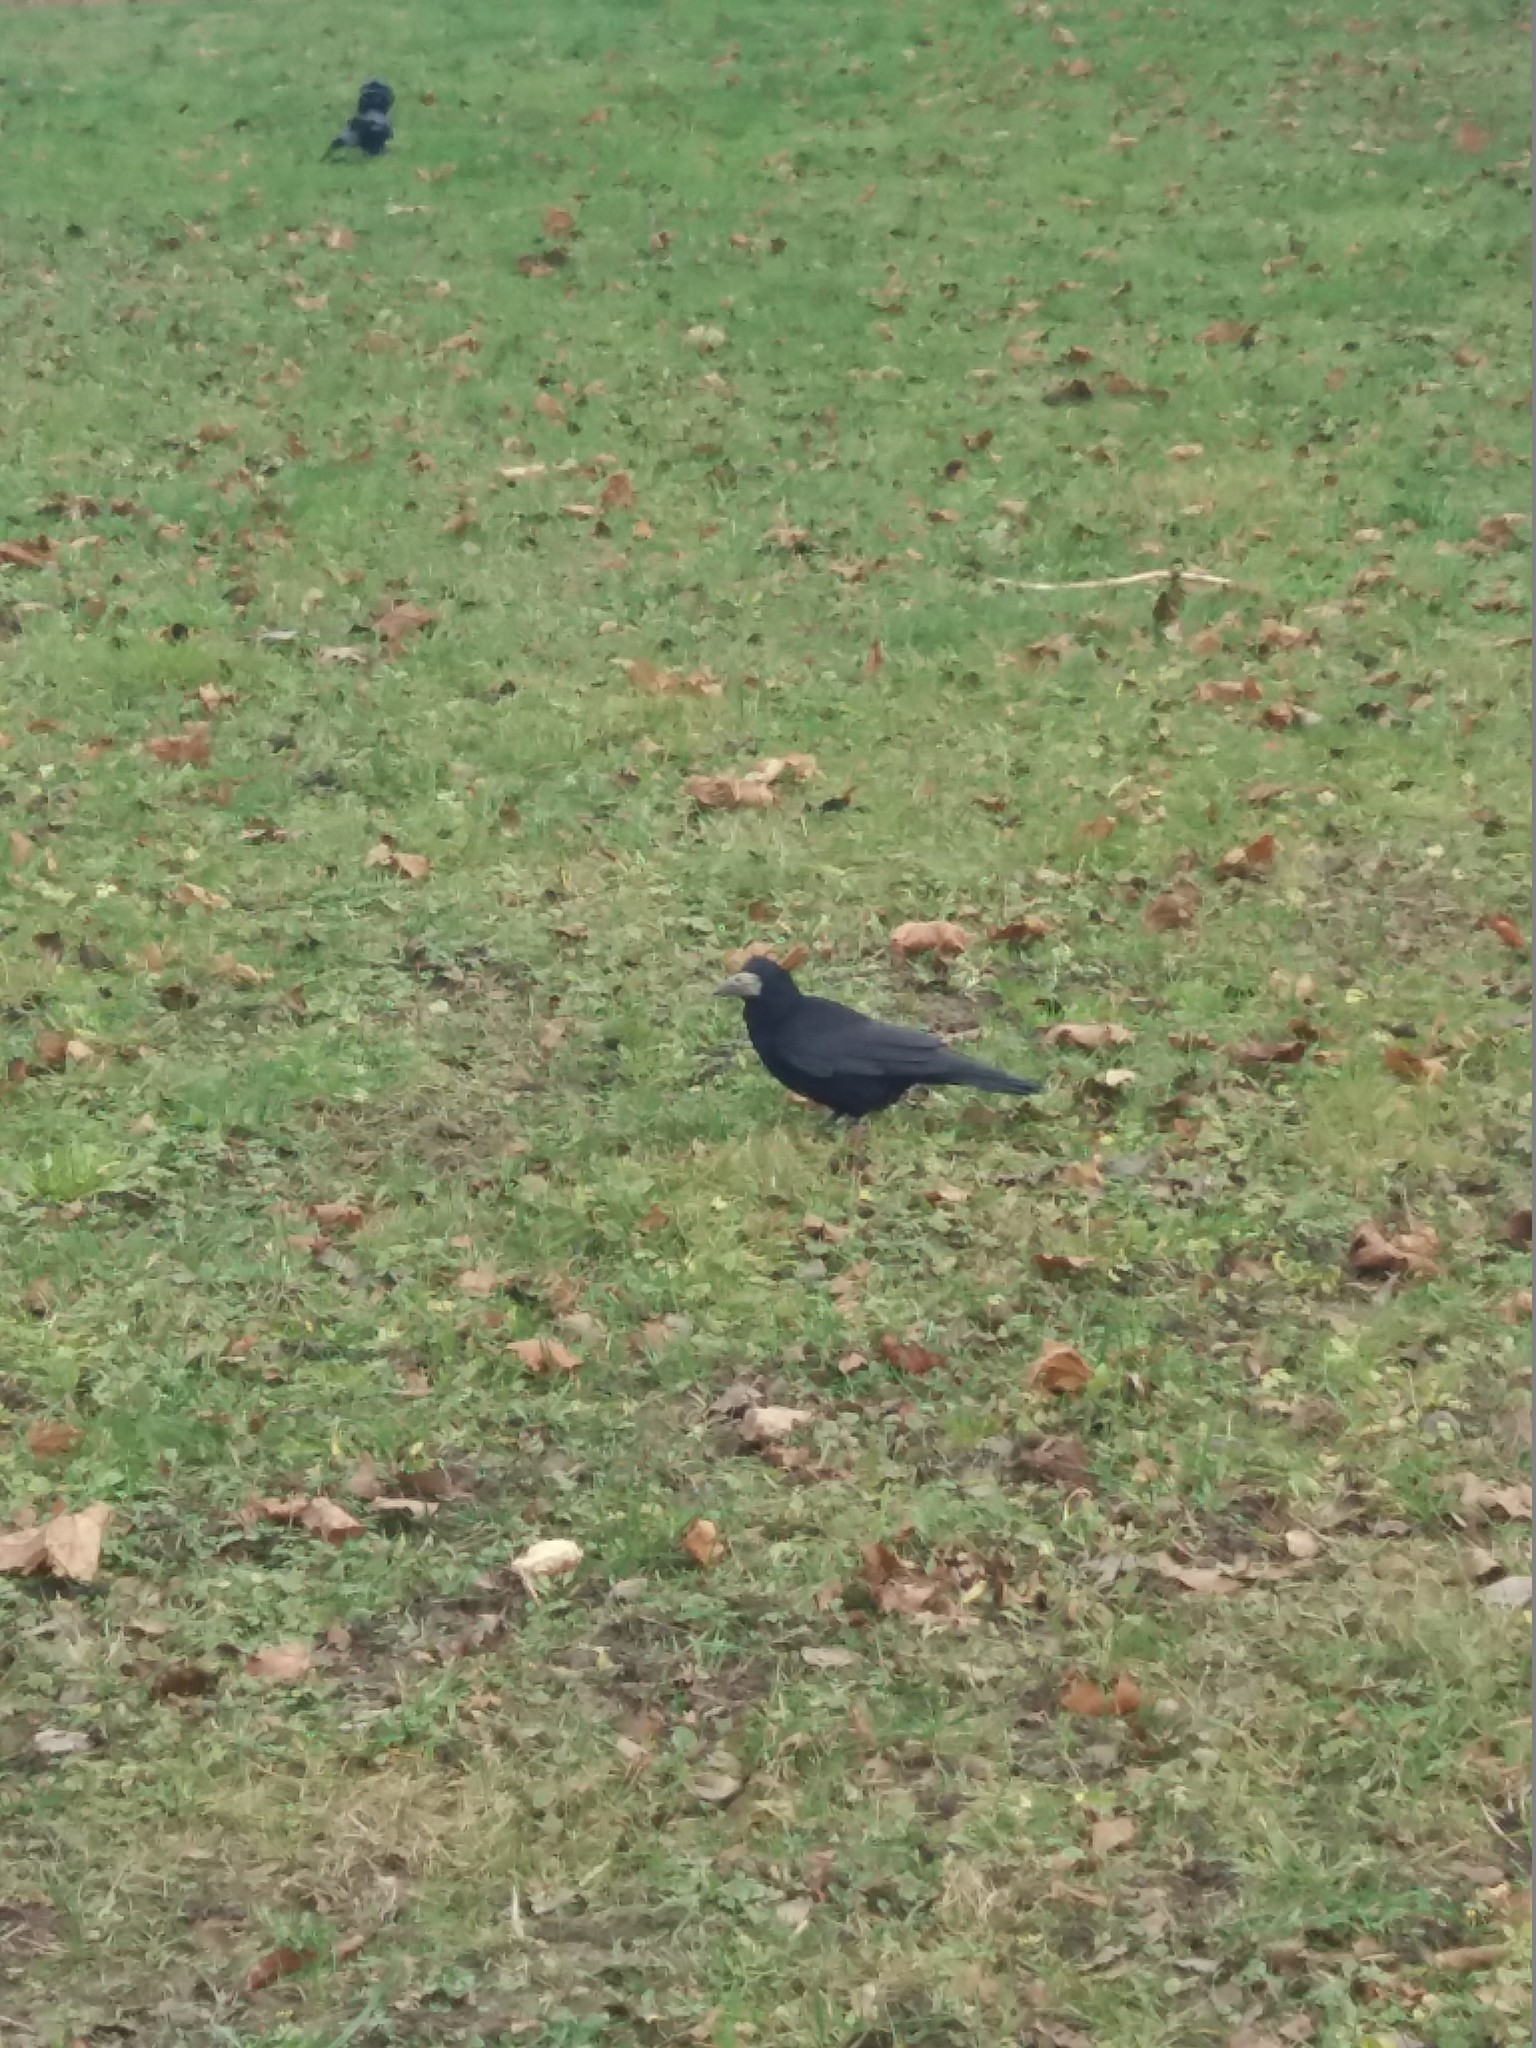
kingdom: Animalia
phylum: Chordata
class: Aves
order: Passeriformes
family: Corvidae
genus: Corvus
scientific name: Corvus frugilegus
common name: Rook
